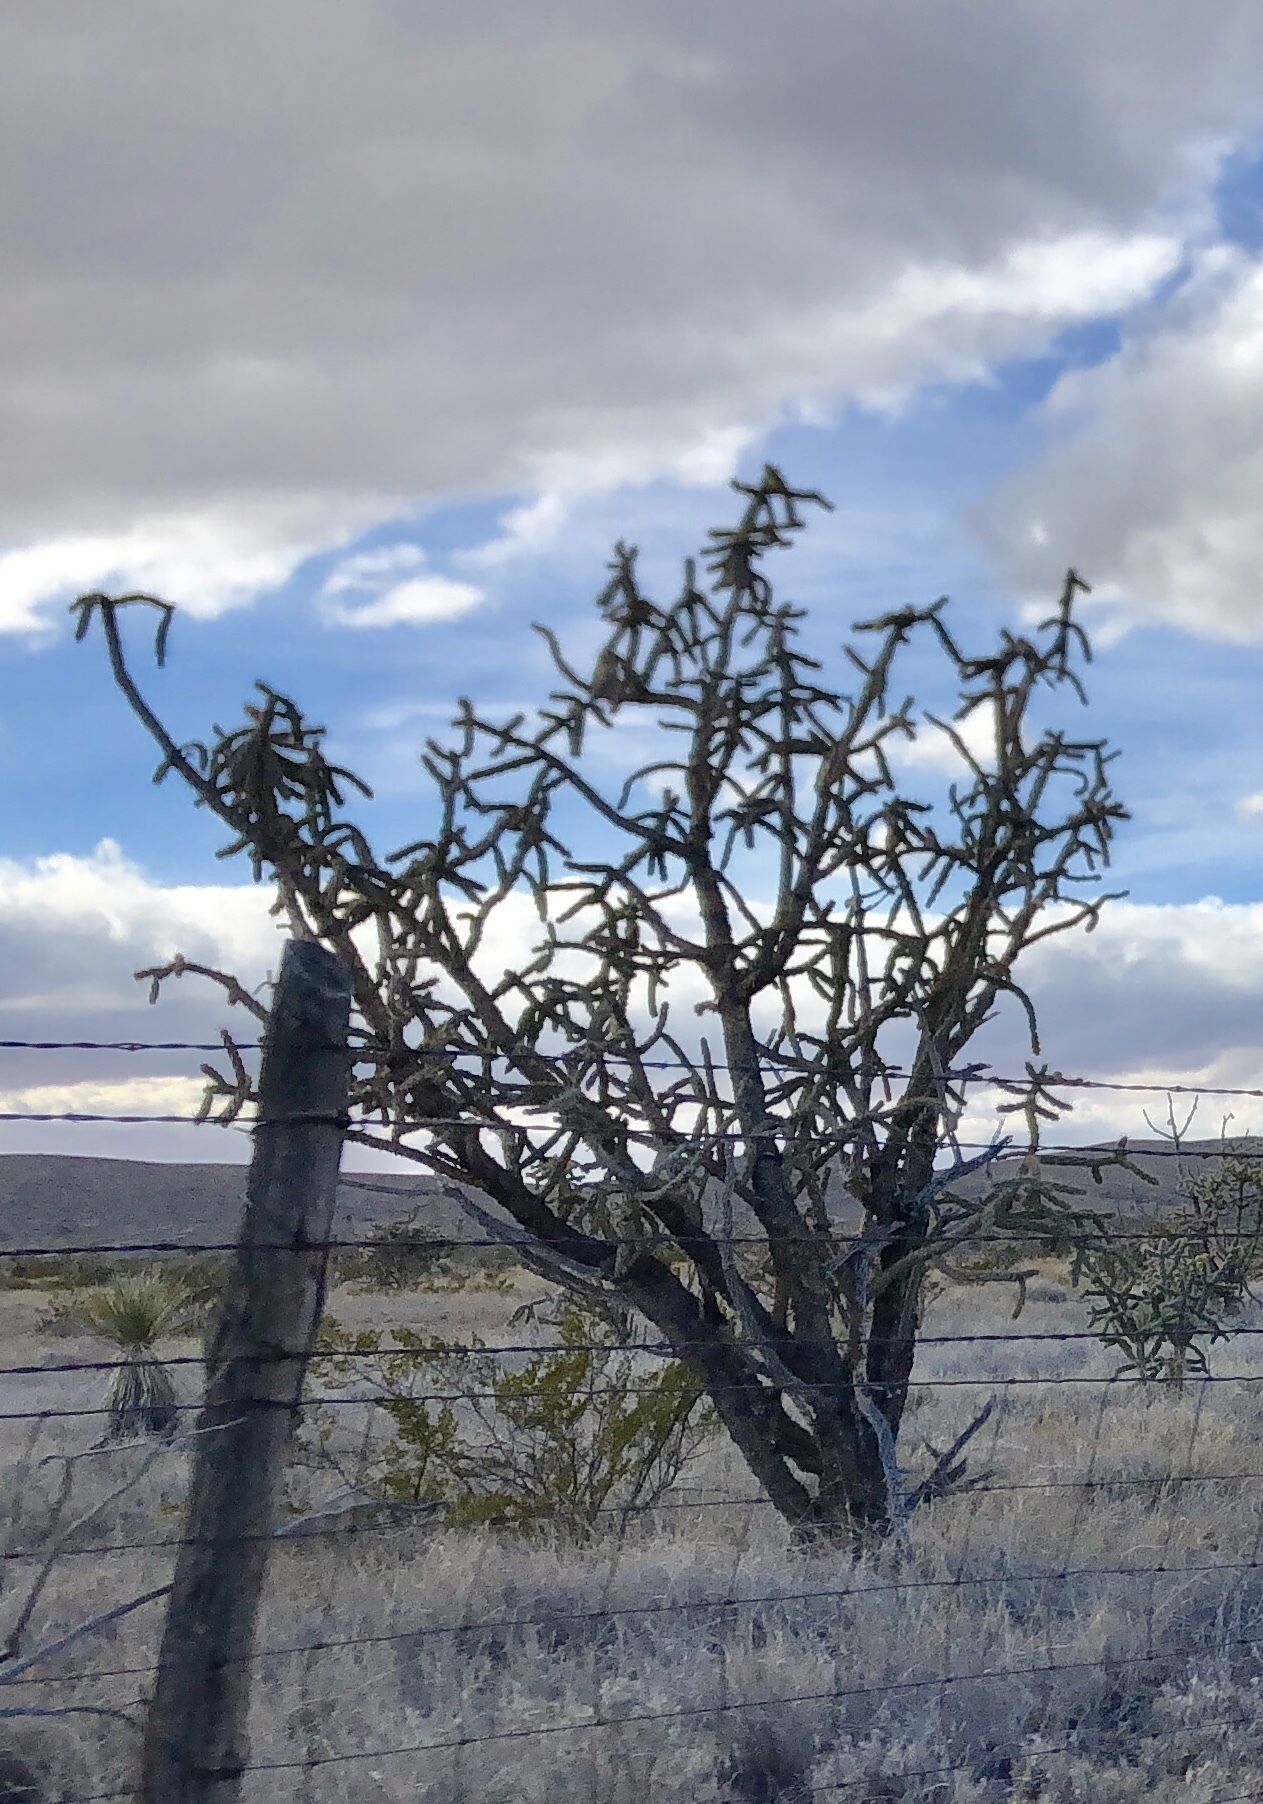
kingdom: Plantae
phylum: Tracheophyta
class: Magnoliopsida
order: Caryophyllales
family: Cactaceae
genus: Cylindropuntia
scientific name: Cylindropuntia imbricata
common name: Candelabrum cactus
